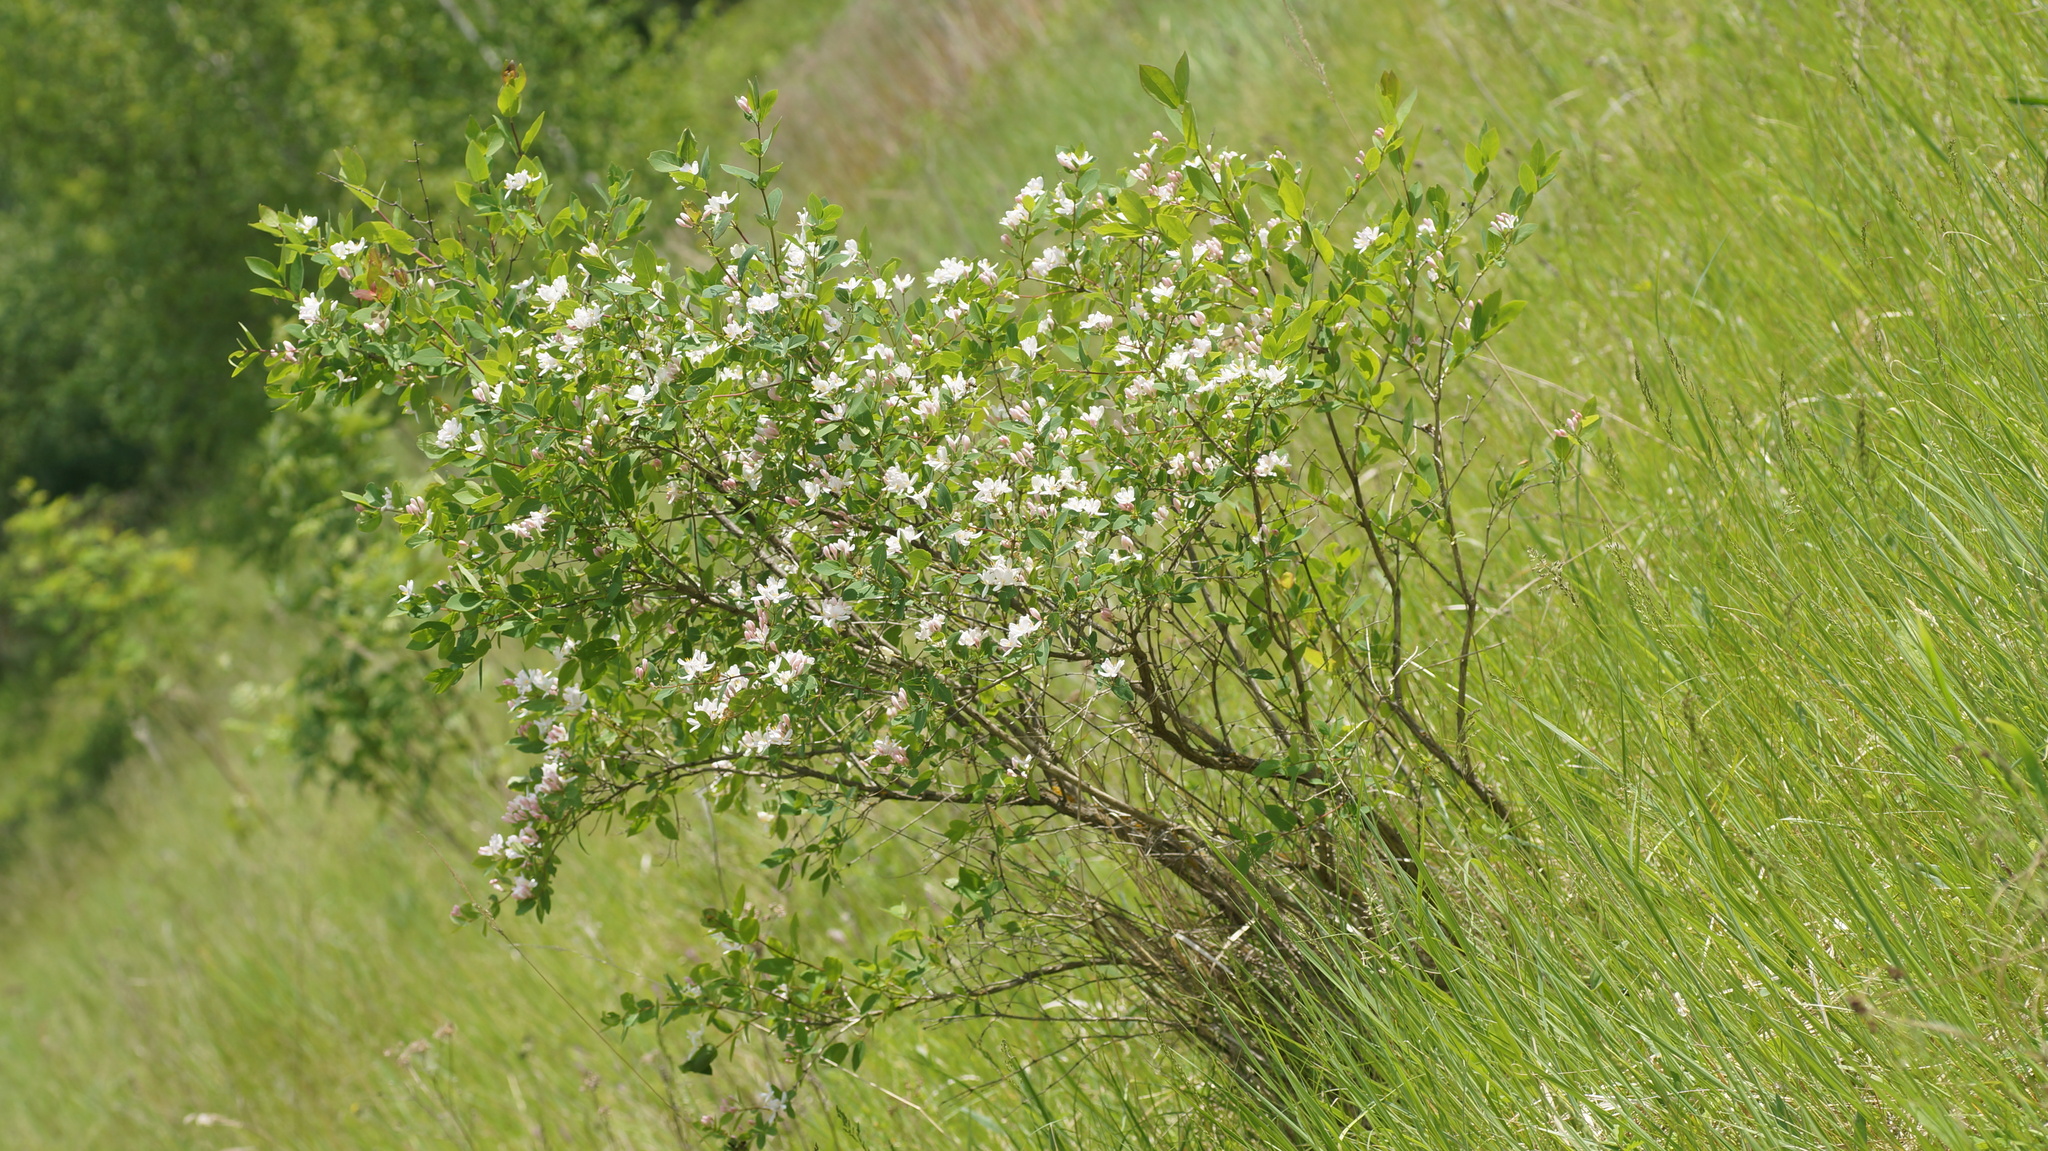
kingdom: Plantae
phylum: Tracheophyta
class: Magnoliopsida
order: Dipsacales
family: Caprifoliaceae
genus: Lonicera
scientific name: Lonicera tatarica
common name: Tatarian honeysuckle
